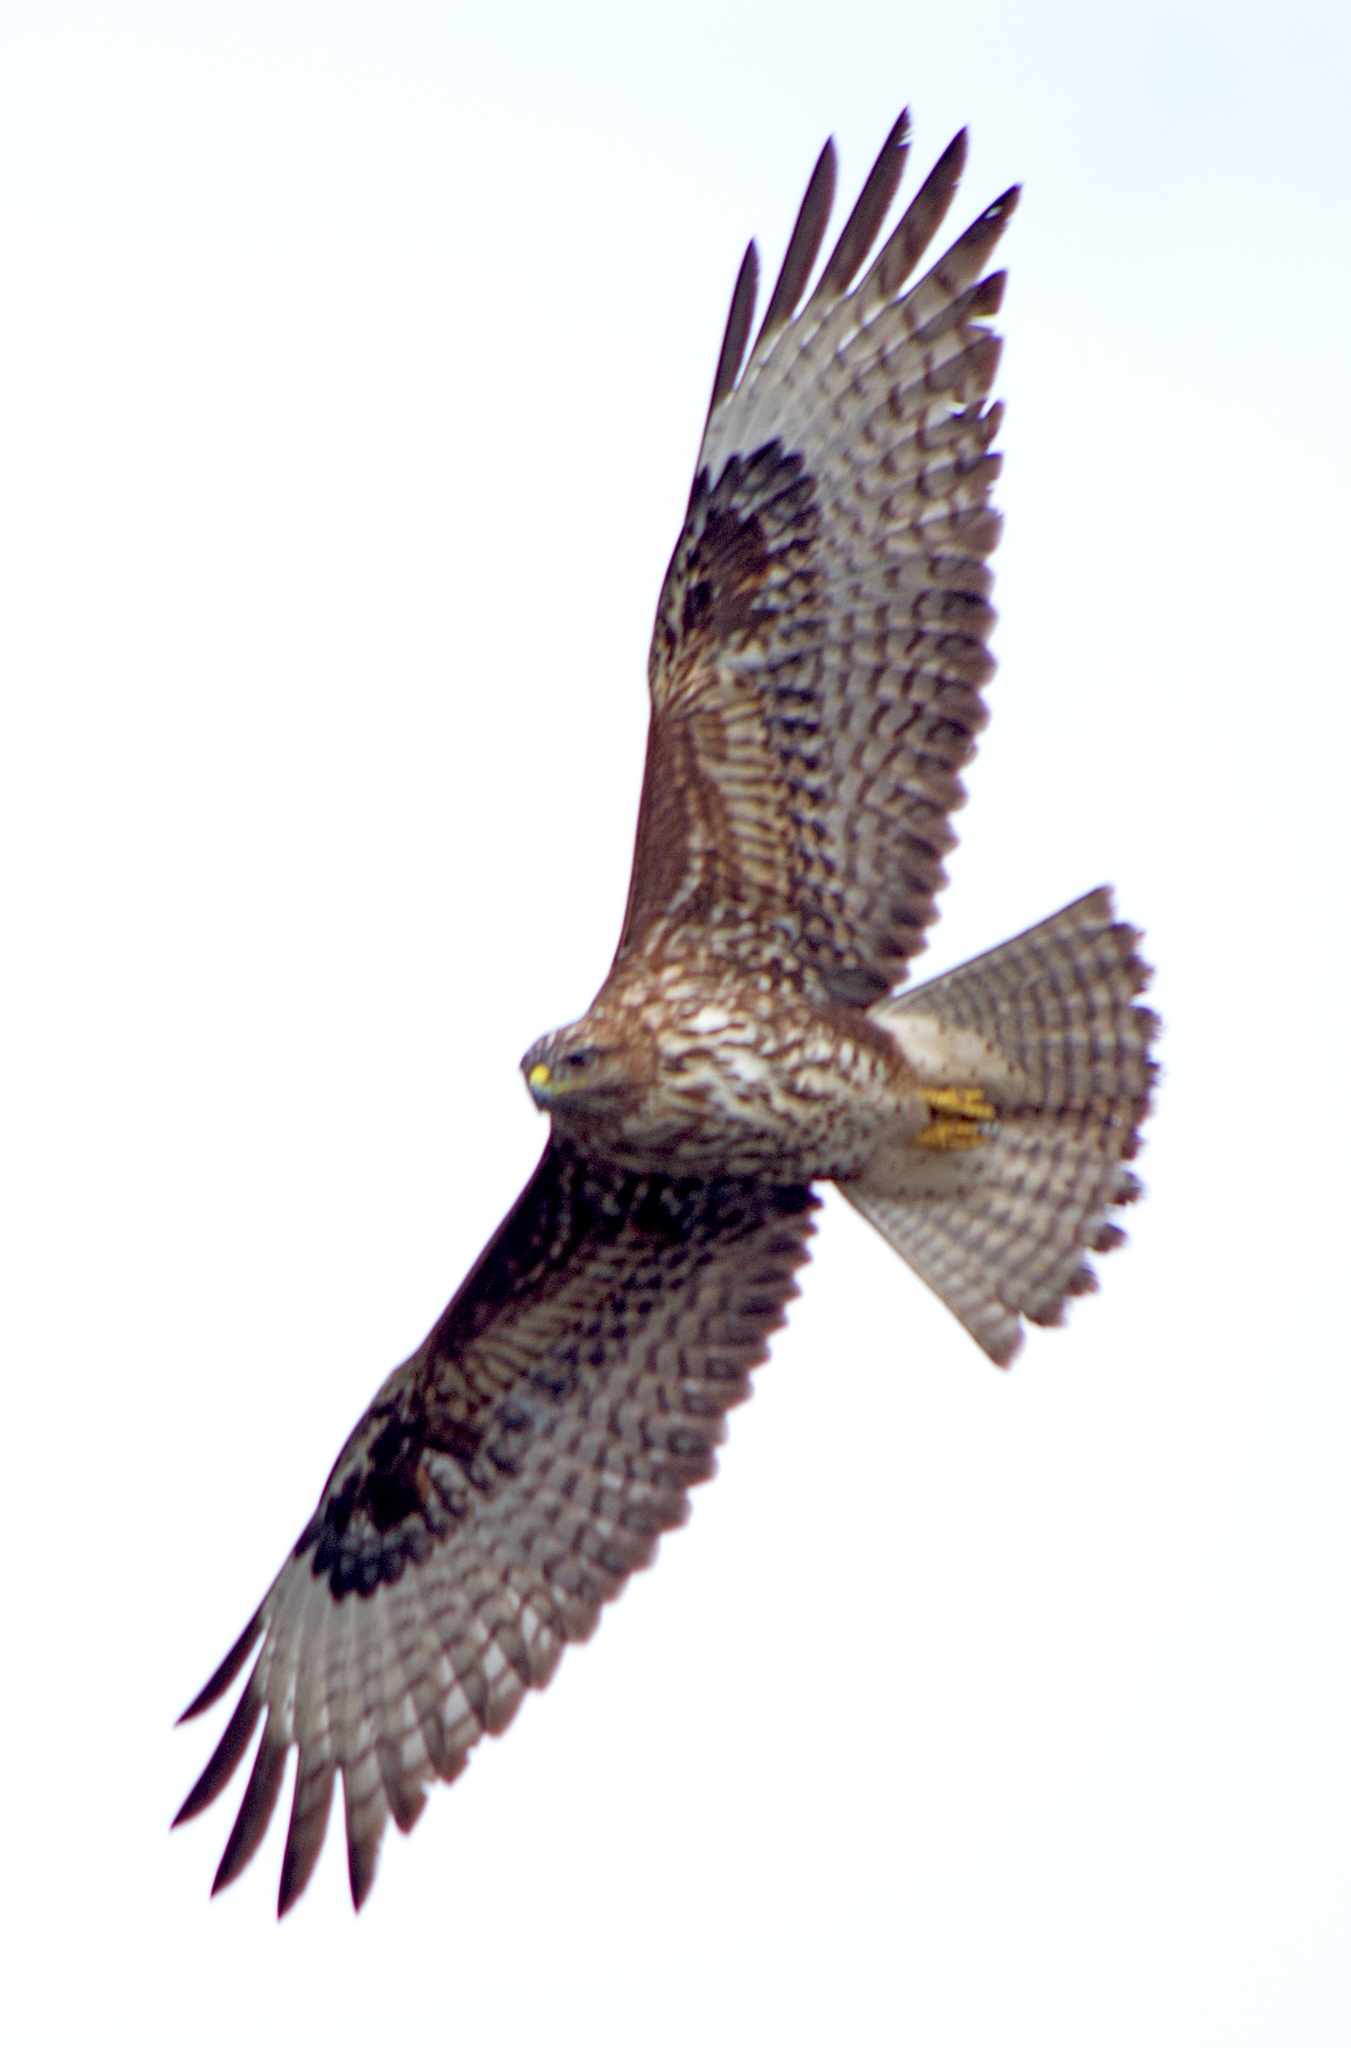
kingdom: Animalia
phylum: Chordata
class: Aves
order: Accipitriformes
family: Accipitridae
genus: Buteo
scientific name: Buteo buteo
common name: Common buzzard
